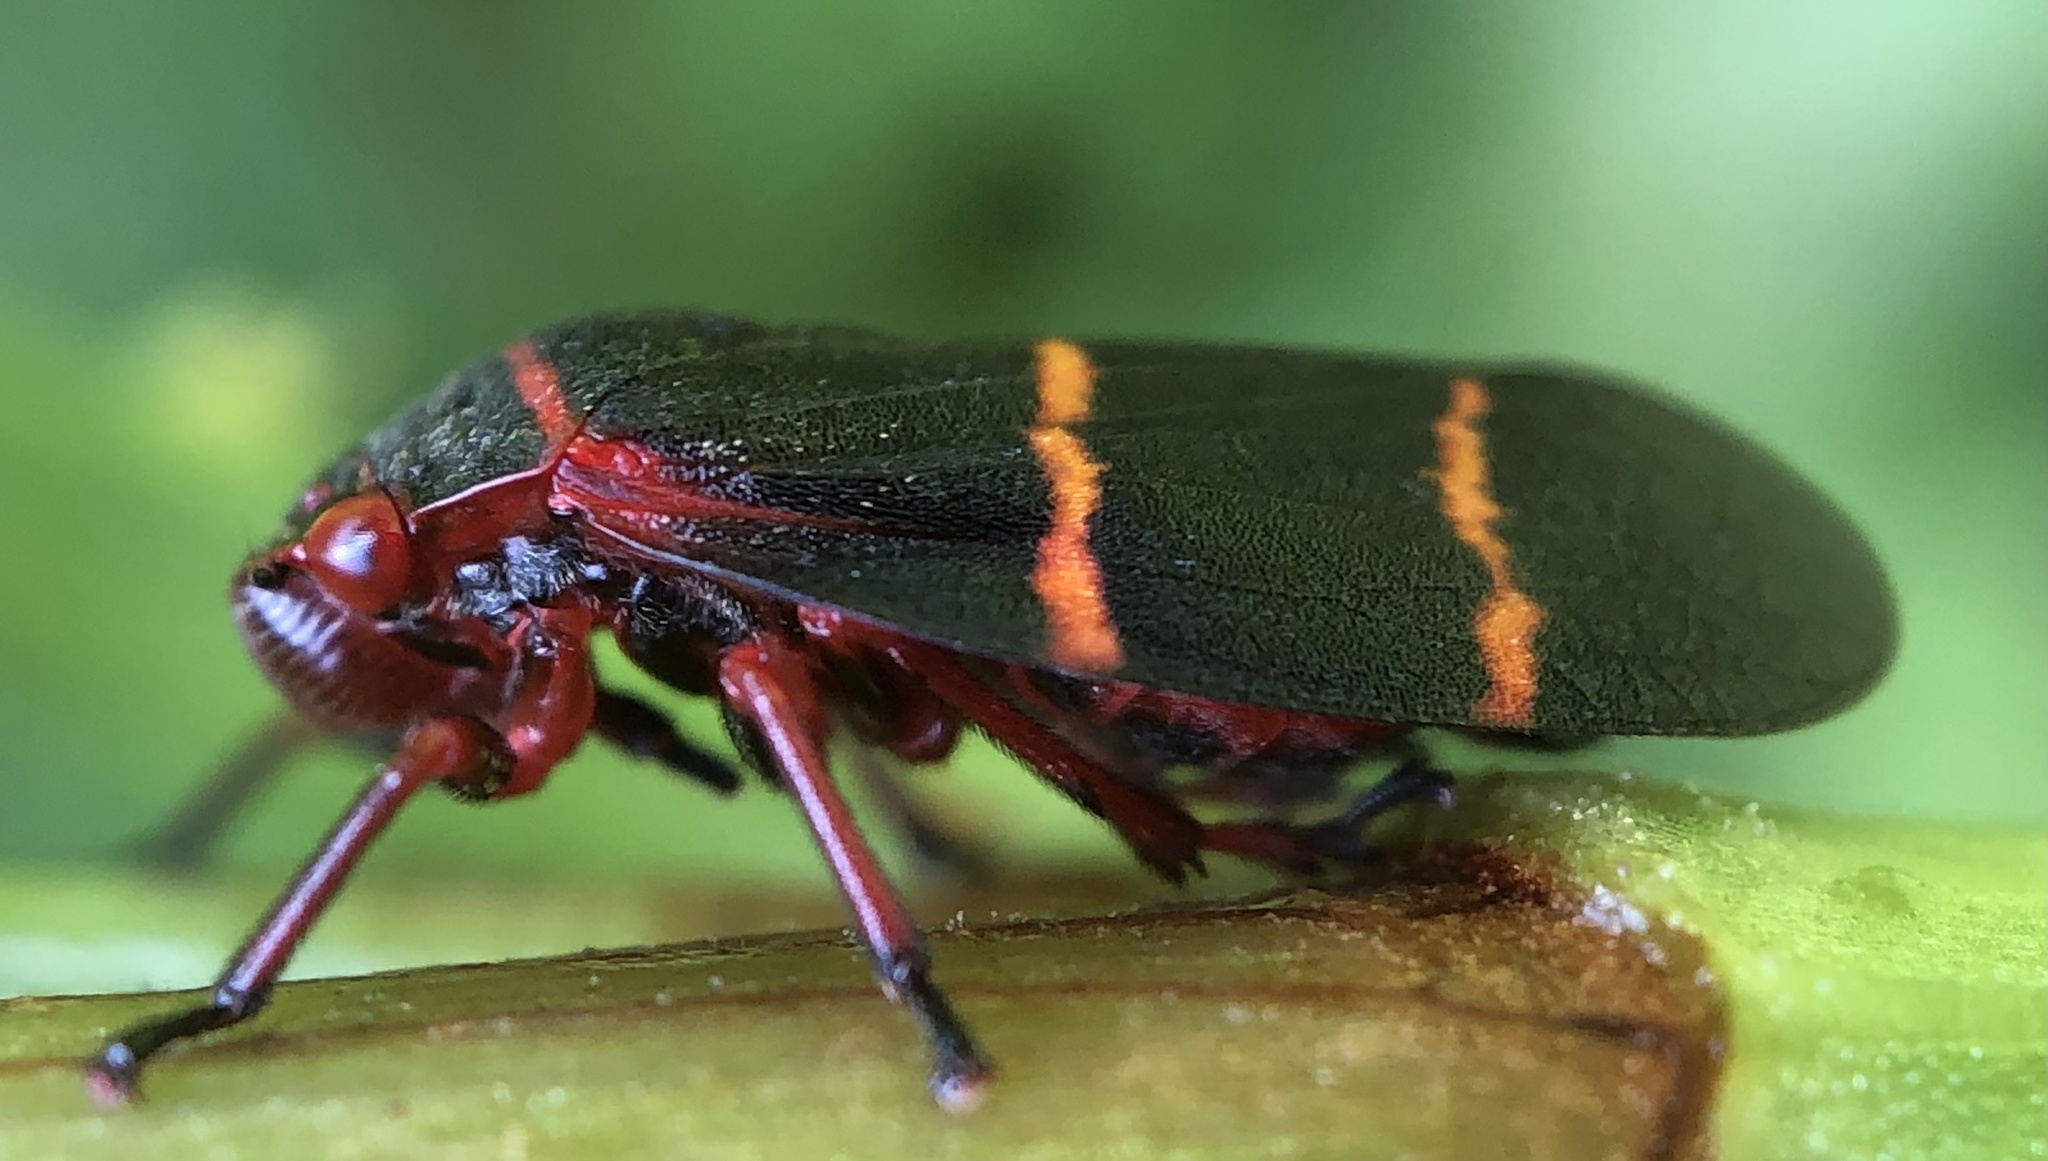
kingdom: Animalia
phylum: Arthropoda
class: Insecta
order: Hemiptera
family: Cercopidae
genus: Prosapia
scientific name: Prosapia bicincta
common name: Twolined spittlebug
